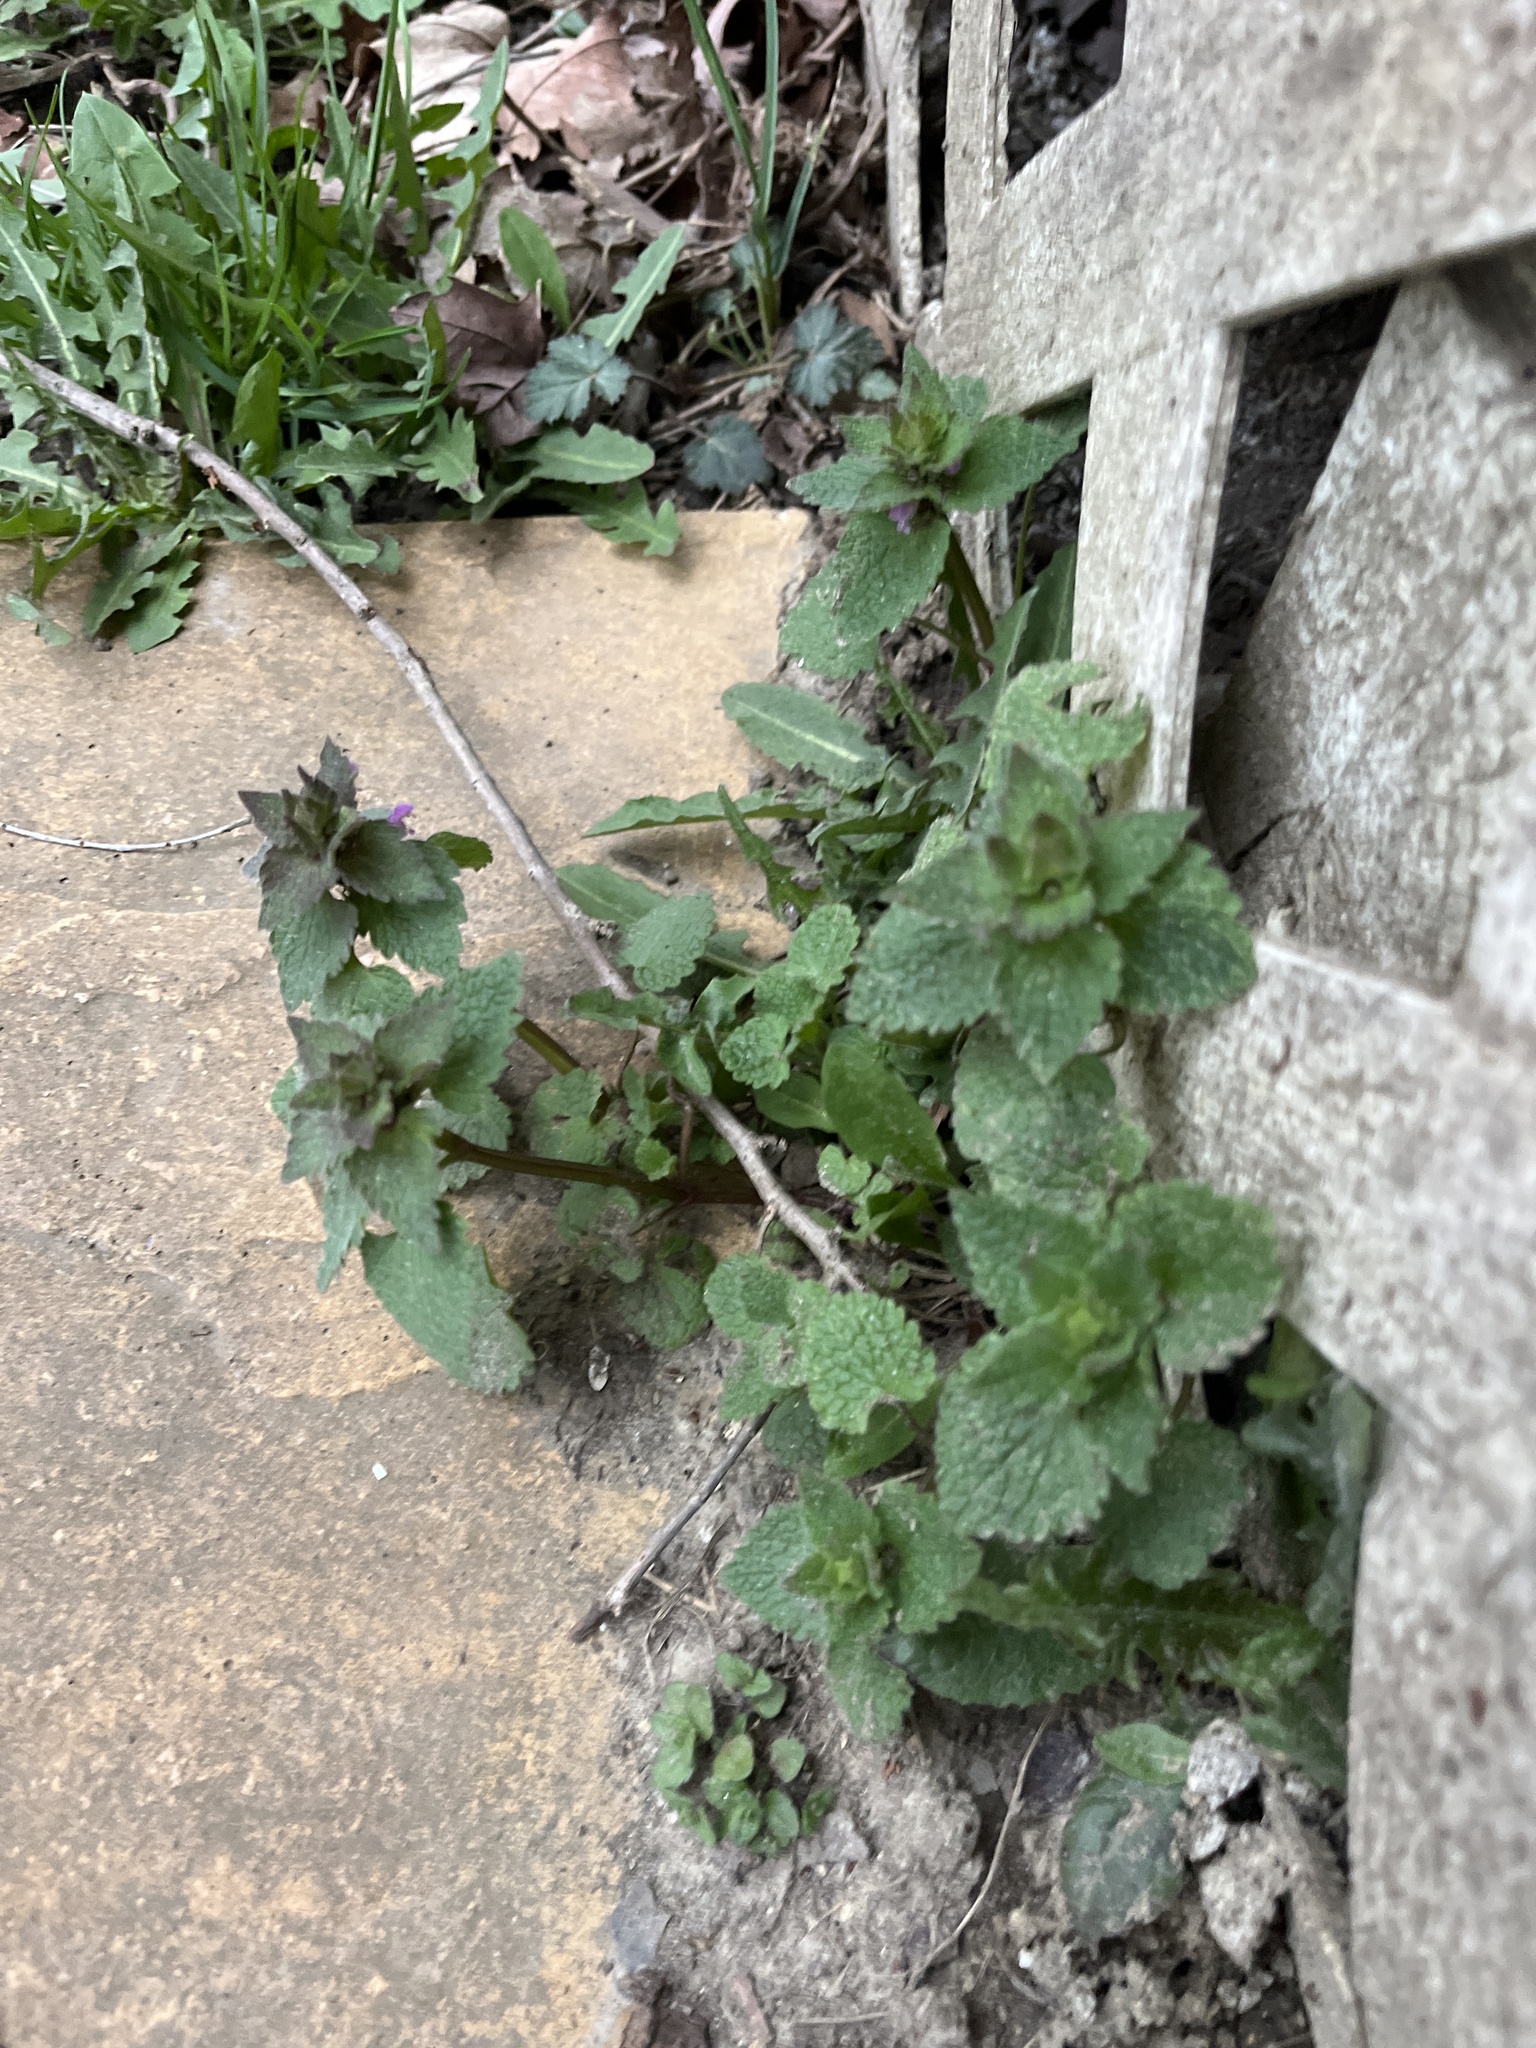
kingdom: Plantae
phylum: Tracheophyta
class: Magnoliopsida
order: Lamiales
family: Lamiaceae
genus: Lamium
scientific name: Lamium purpureum
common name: Red dead-nettle
